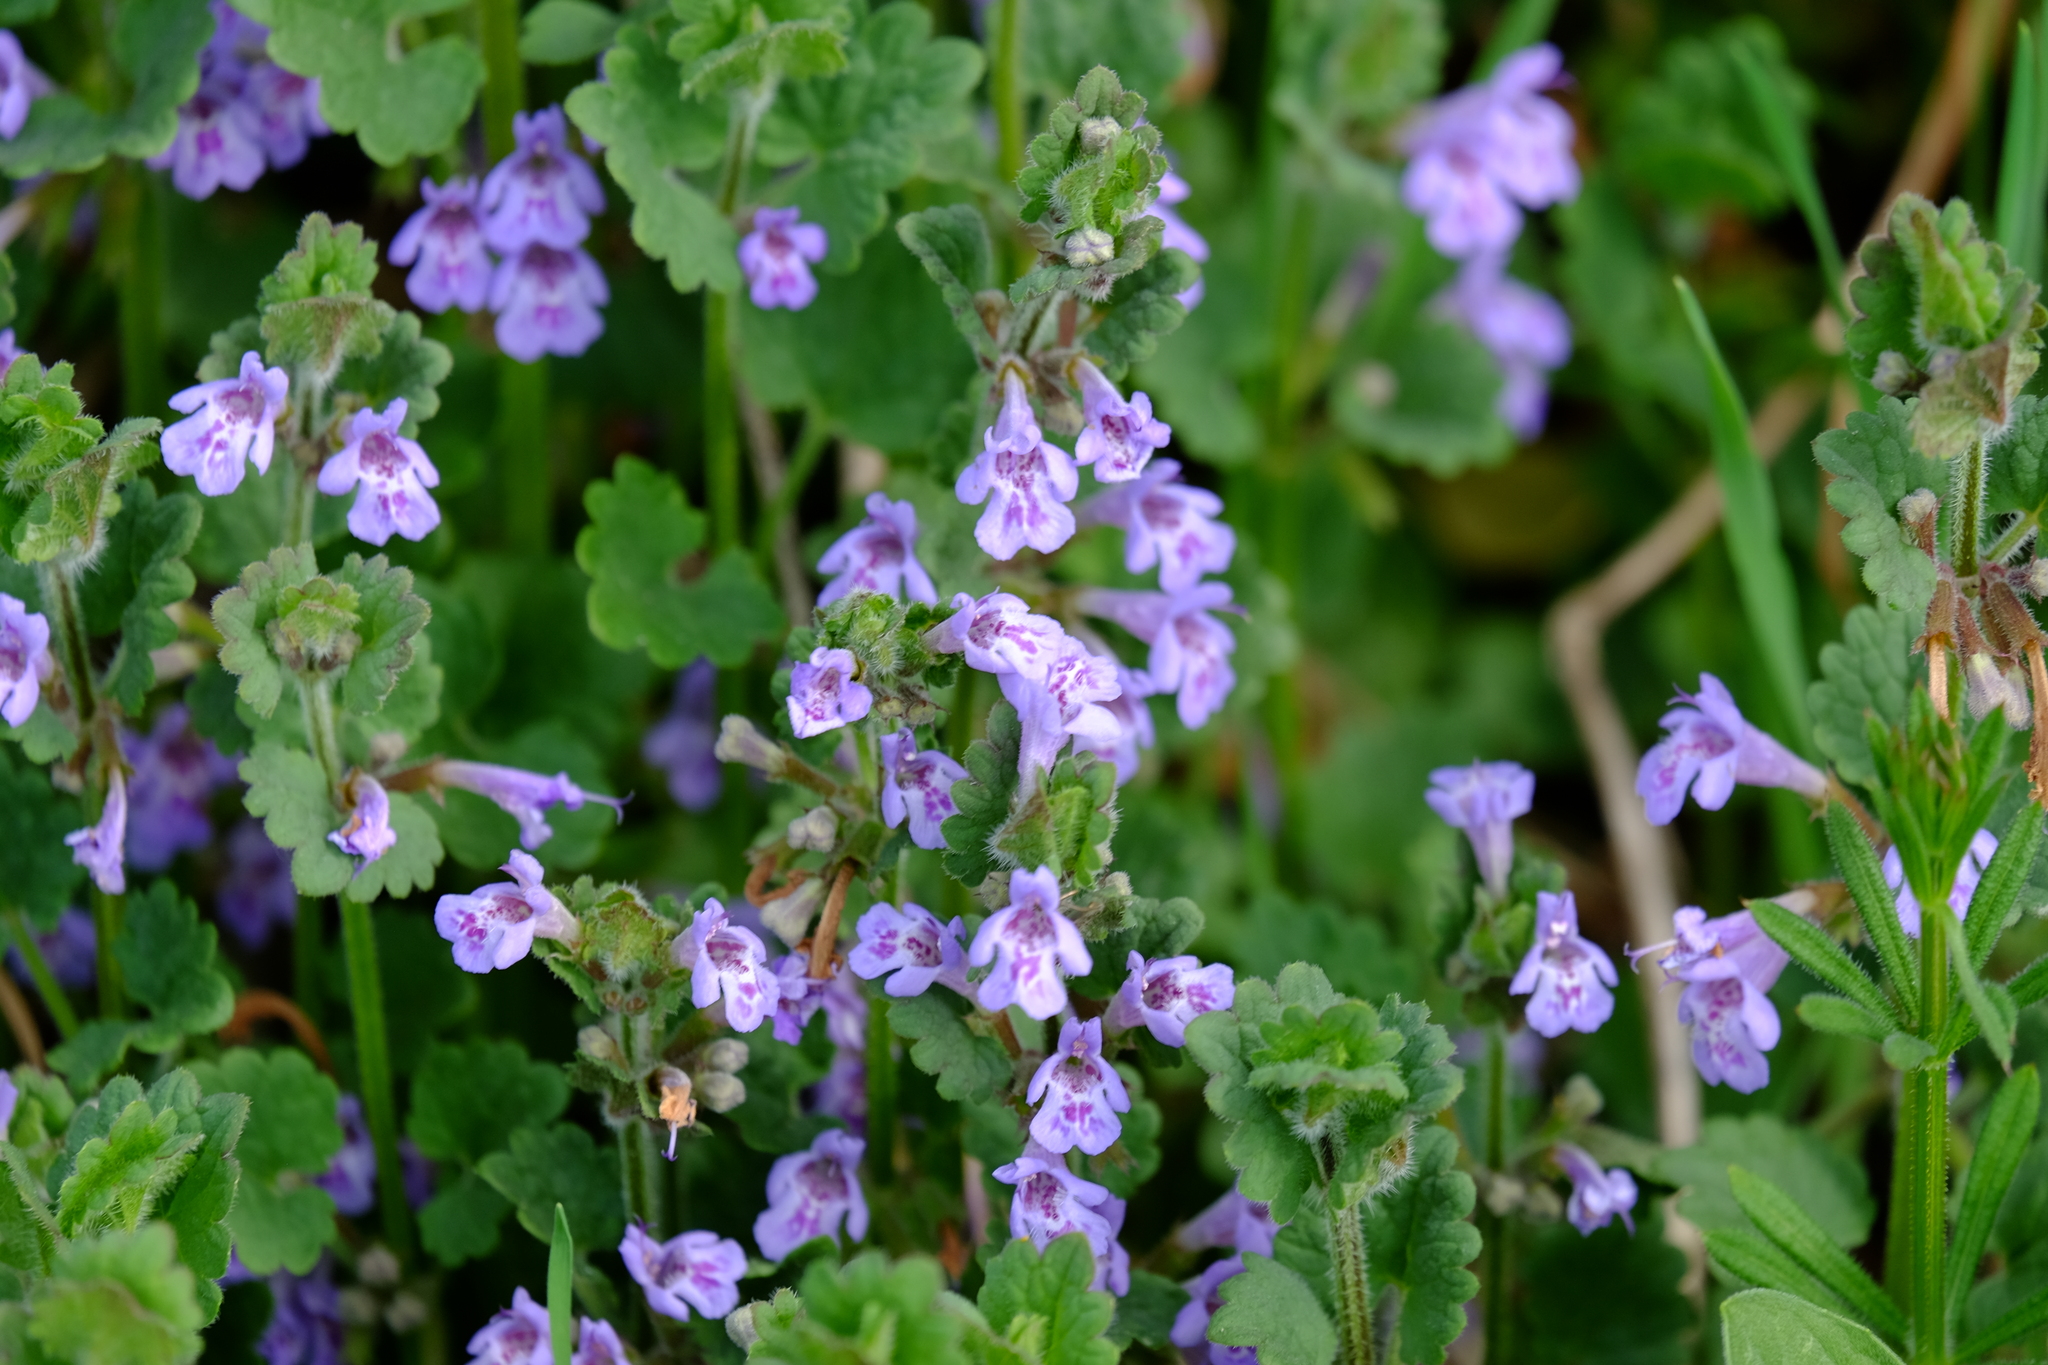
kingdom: Plantae
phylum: Tracheophyta
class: Magnoliopsida
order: Lamiales
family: Lamiaceae
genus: Glechoma
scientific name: Glechoma hederacea
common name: Ground ivy
